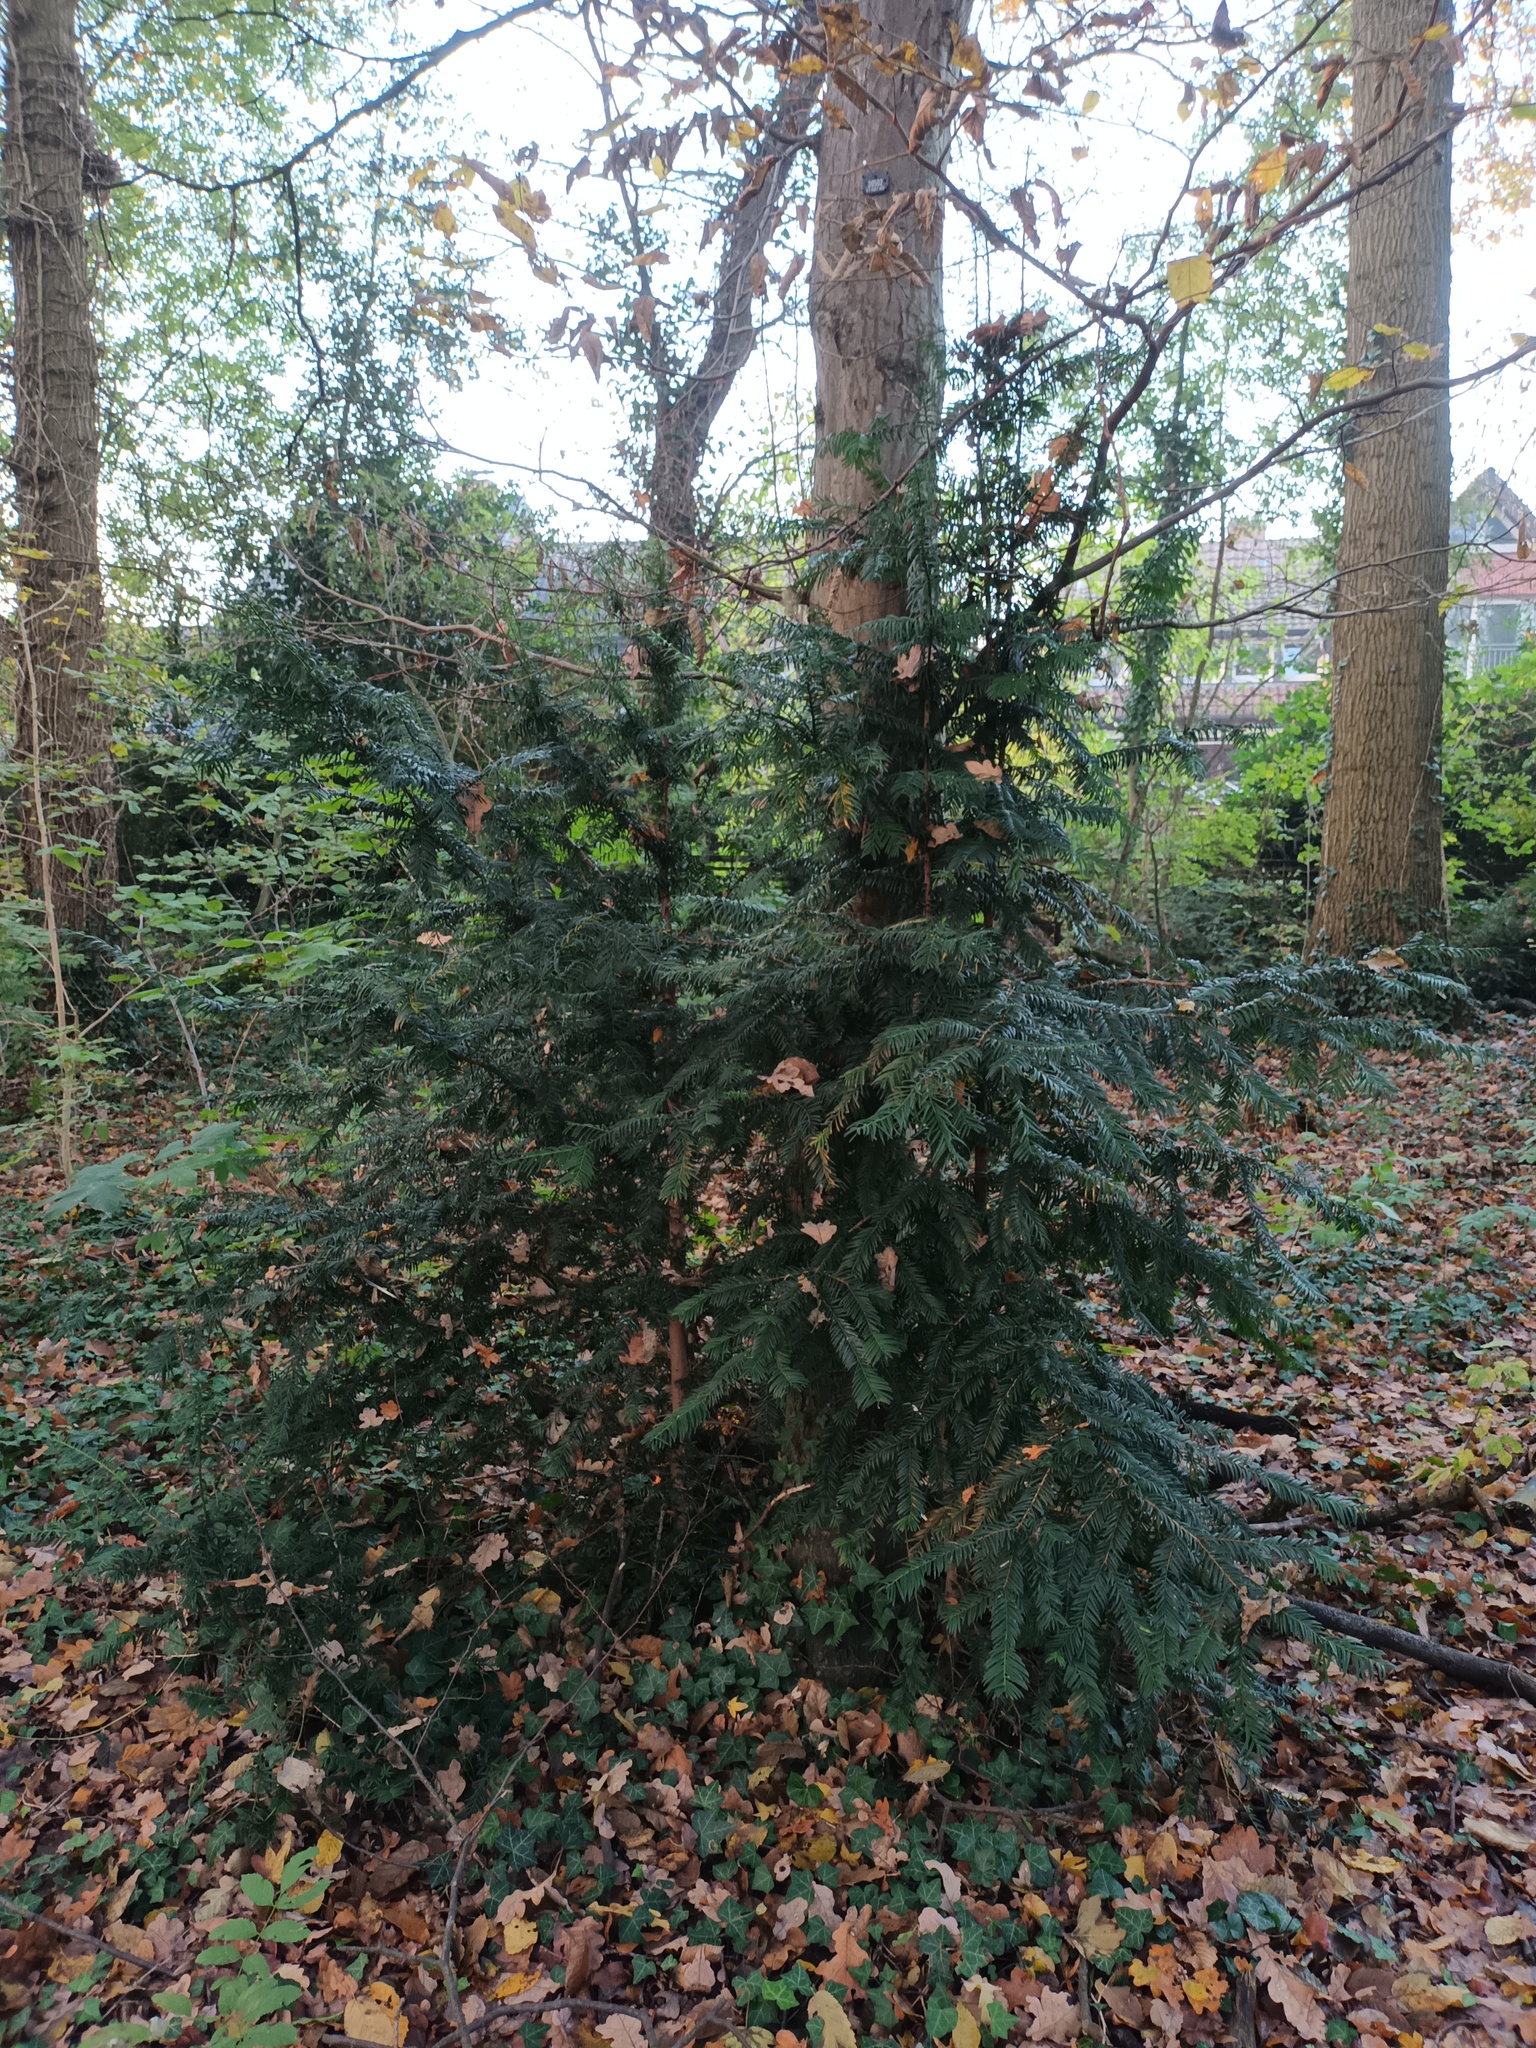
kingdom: Plantae
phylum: Tracheophyta
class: Pinopsida
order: Pinales
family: Taxaceae
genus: Taxus
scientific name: Taxus baccata
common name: Yew
